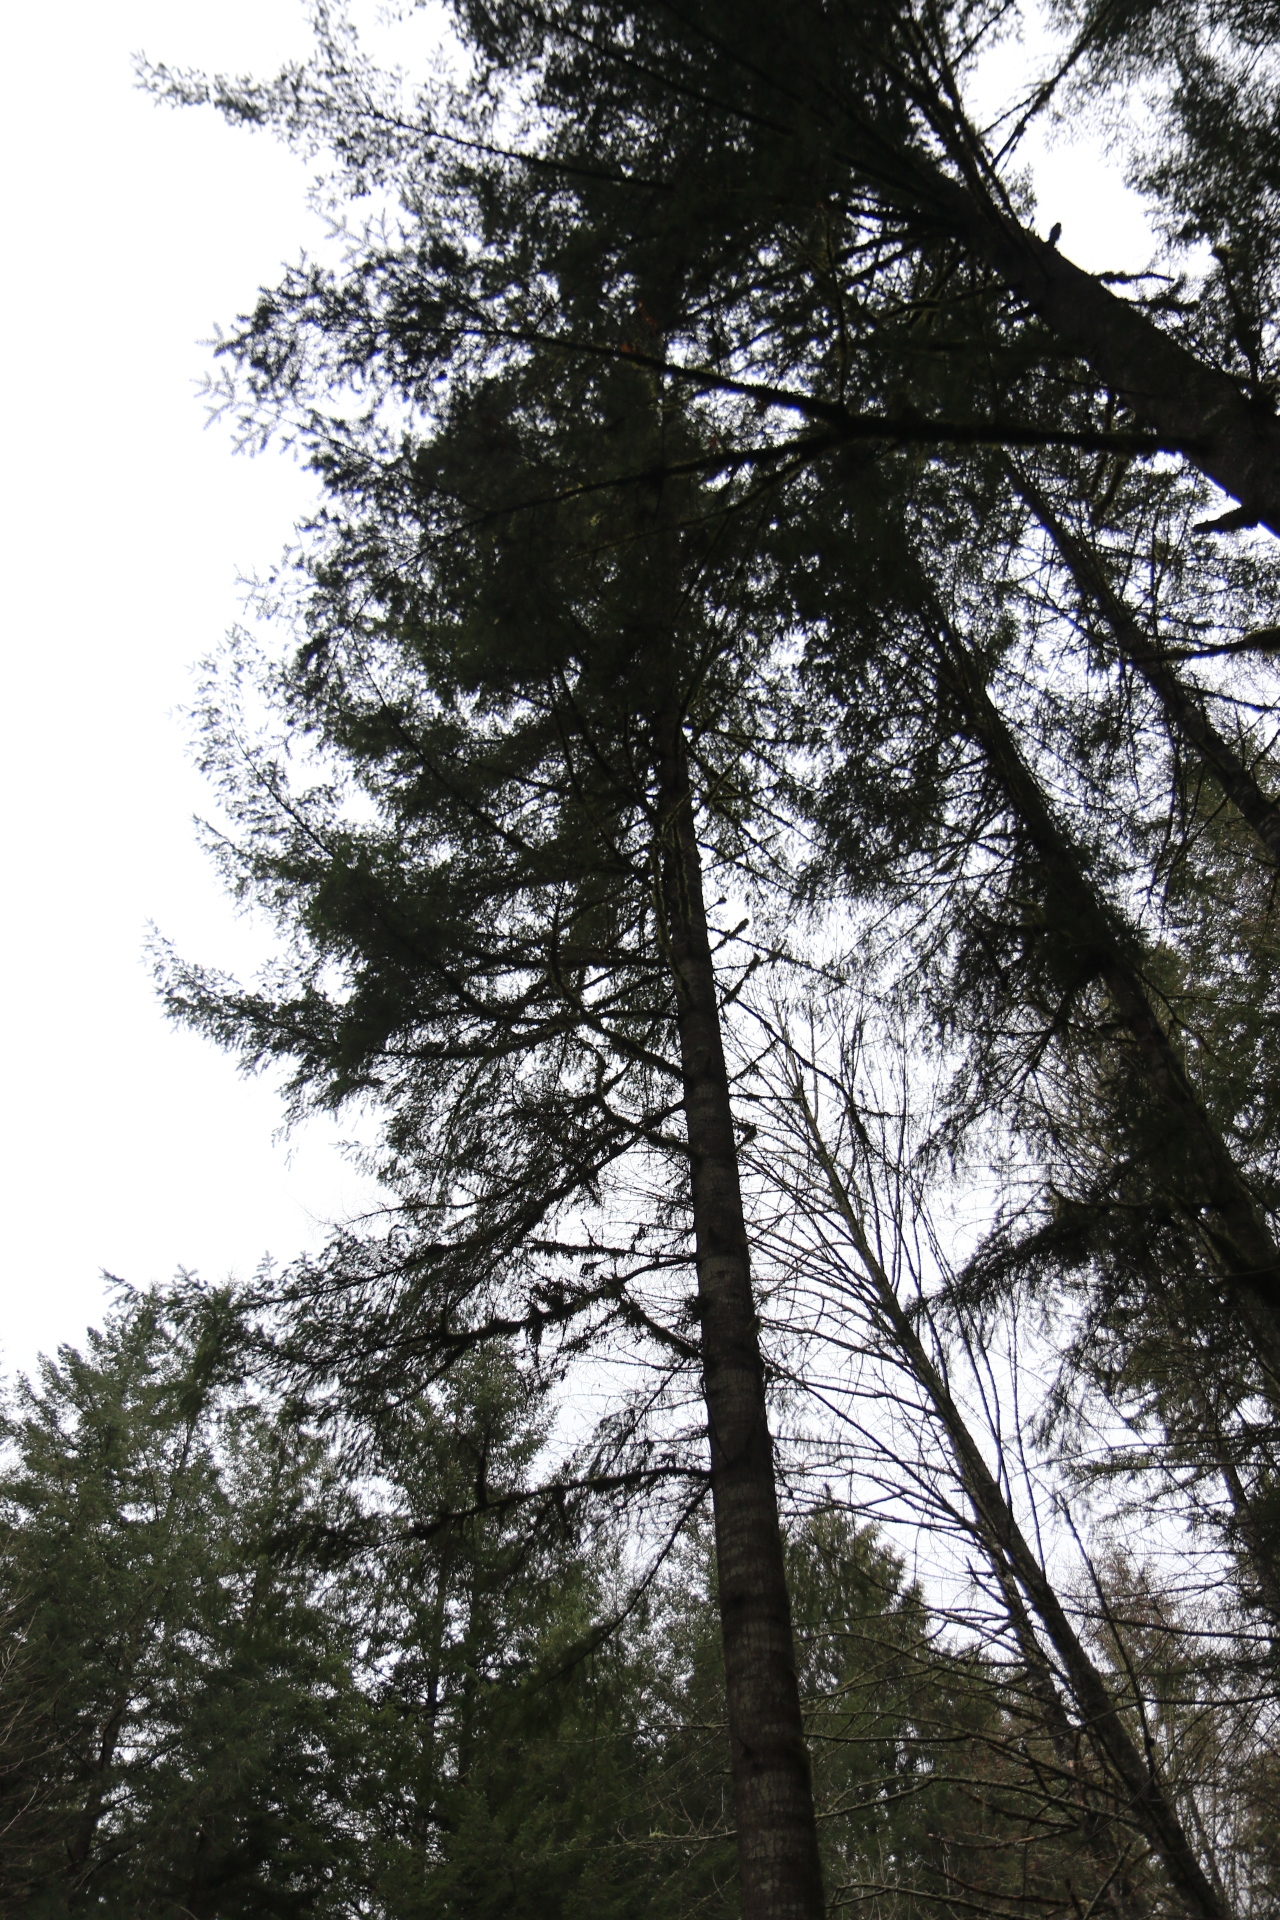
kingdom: Plantae
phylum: Tracheophyta
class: Pinopsida
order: Pinales
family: Pinaceae
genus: Pseudotsuga
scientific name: Pseudotsuga menziesii
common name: Douglas fir
